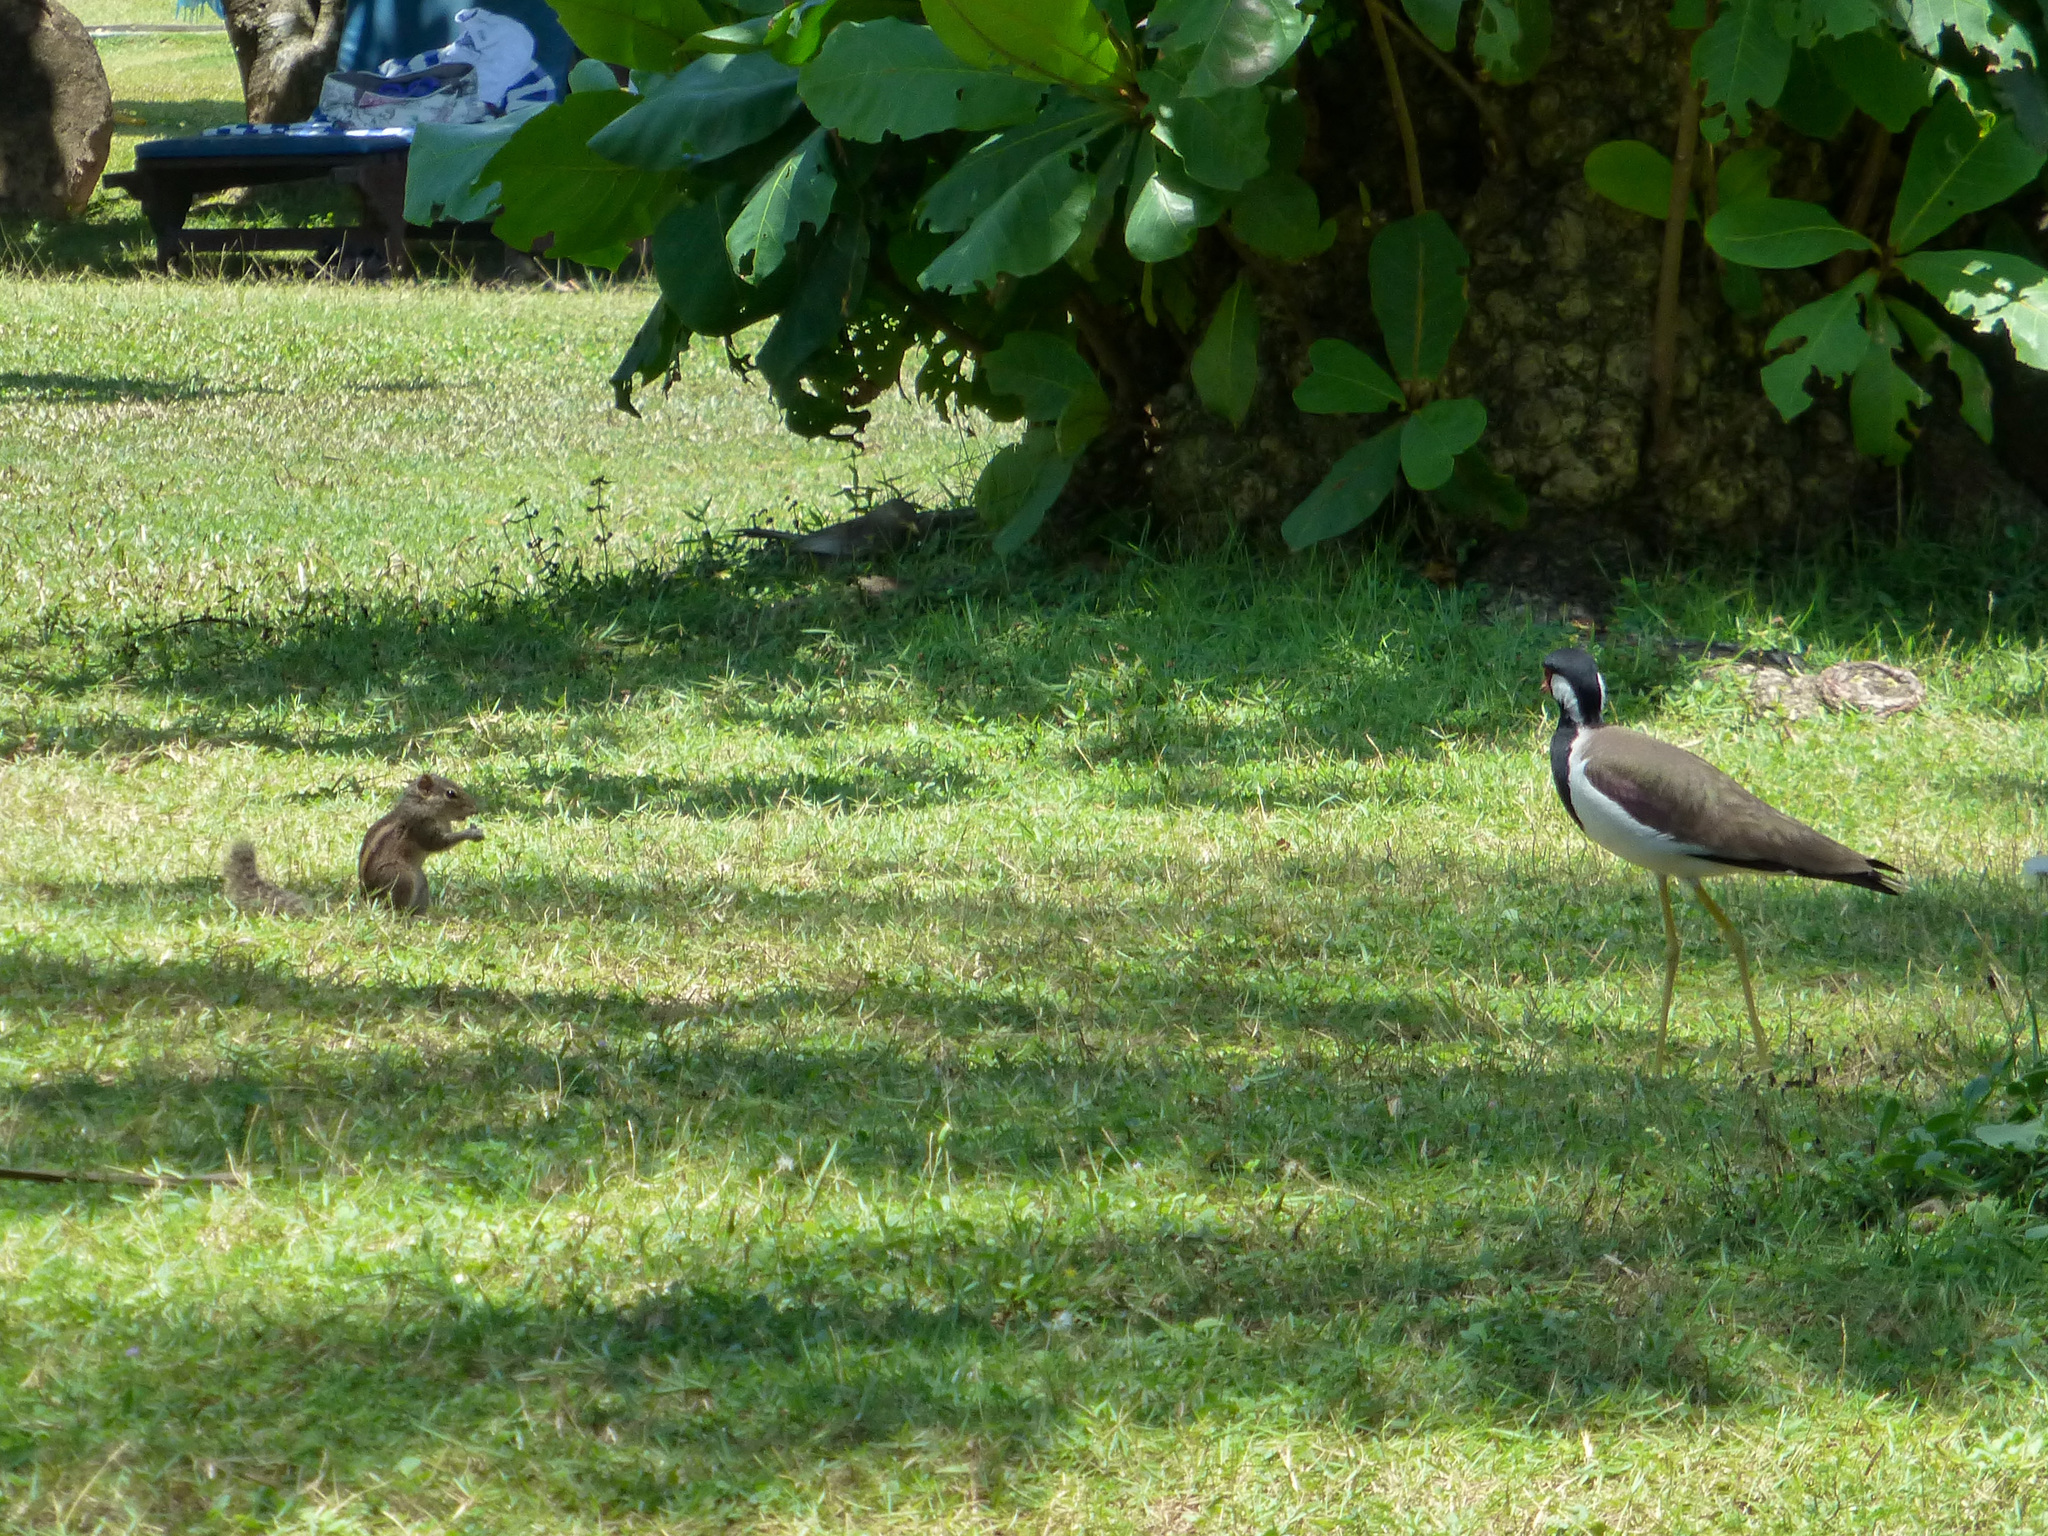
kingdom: Animalia
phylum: Chordata
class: Aves
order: Charadriiformes
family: Charadriidae
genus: Vanellus
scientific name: Vanellus indicus
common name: Red-wattled lapwing
